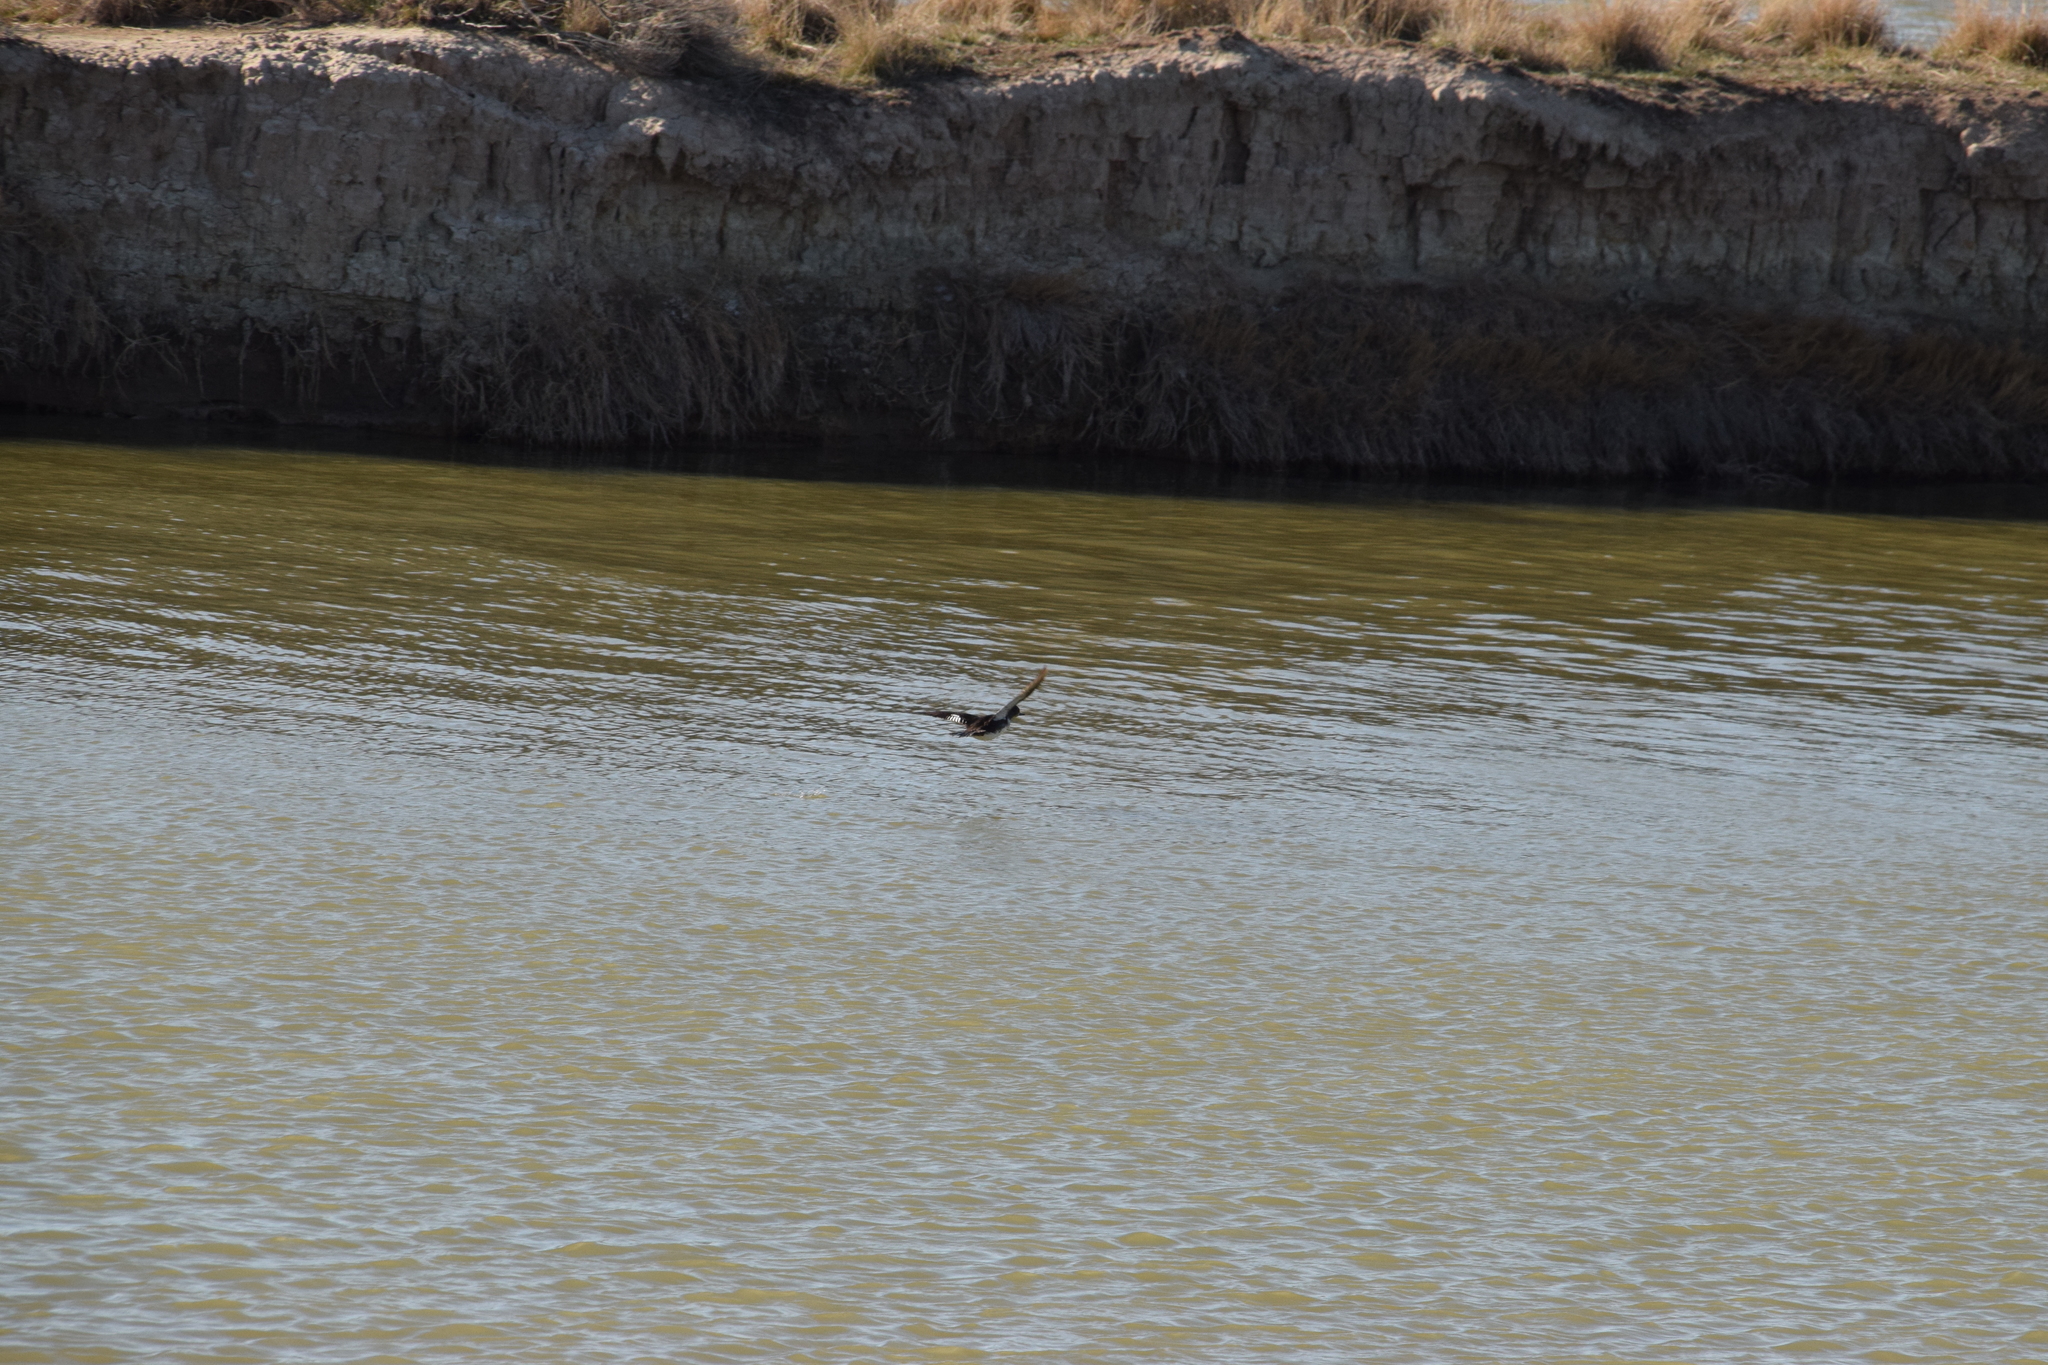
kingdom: Animalia
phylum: Chordata
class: Aves
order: Anseriformes
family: Anatidae
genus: Mareca
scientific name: Mareca americana
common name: American wigeon
